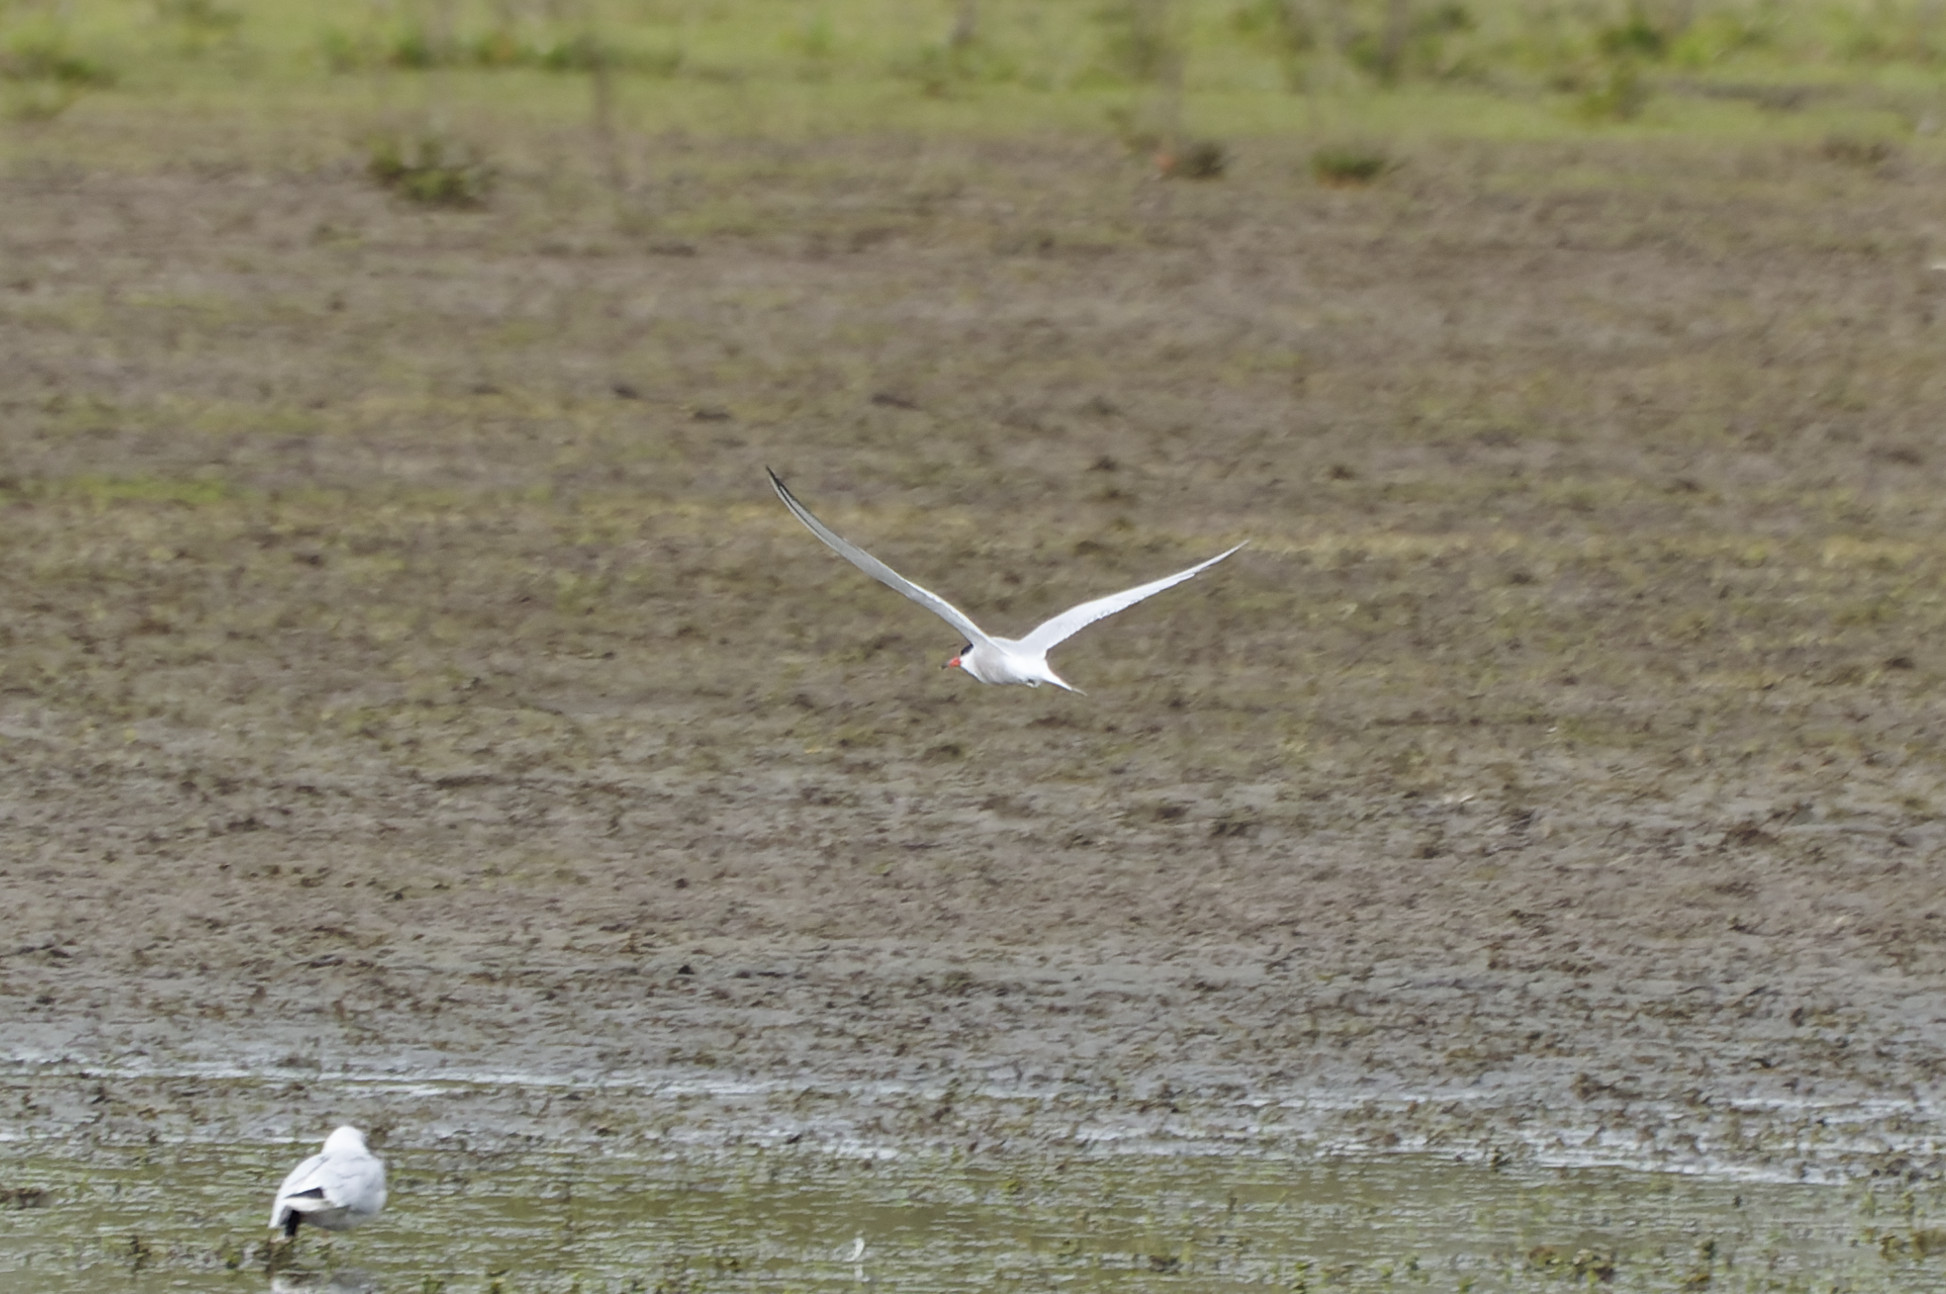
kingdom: Animalia
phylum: Chordata
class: Aves
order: Charadriiformes
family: Laridae
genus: Sterna
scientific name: Sterna hirundo
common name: Common tern
